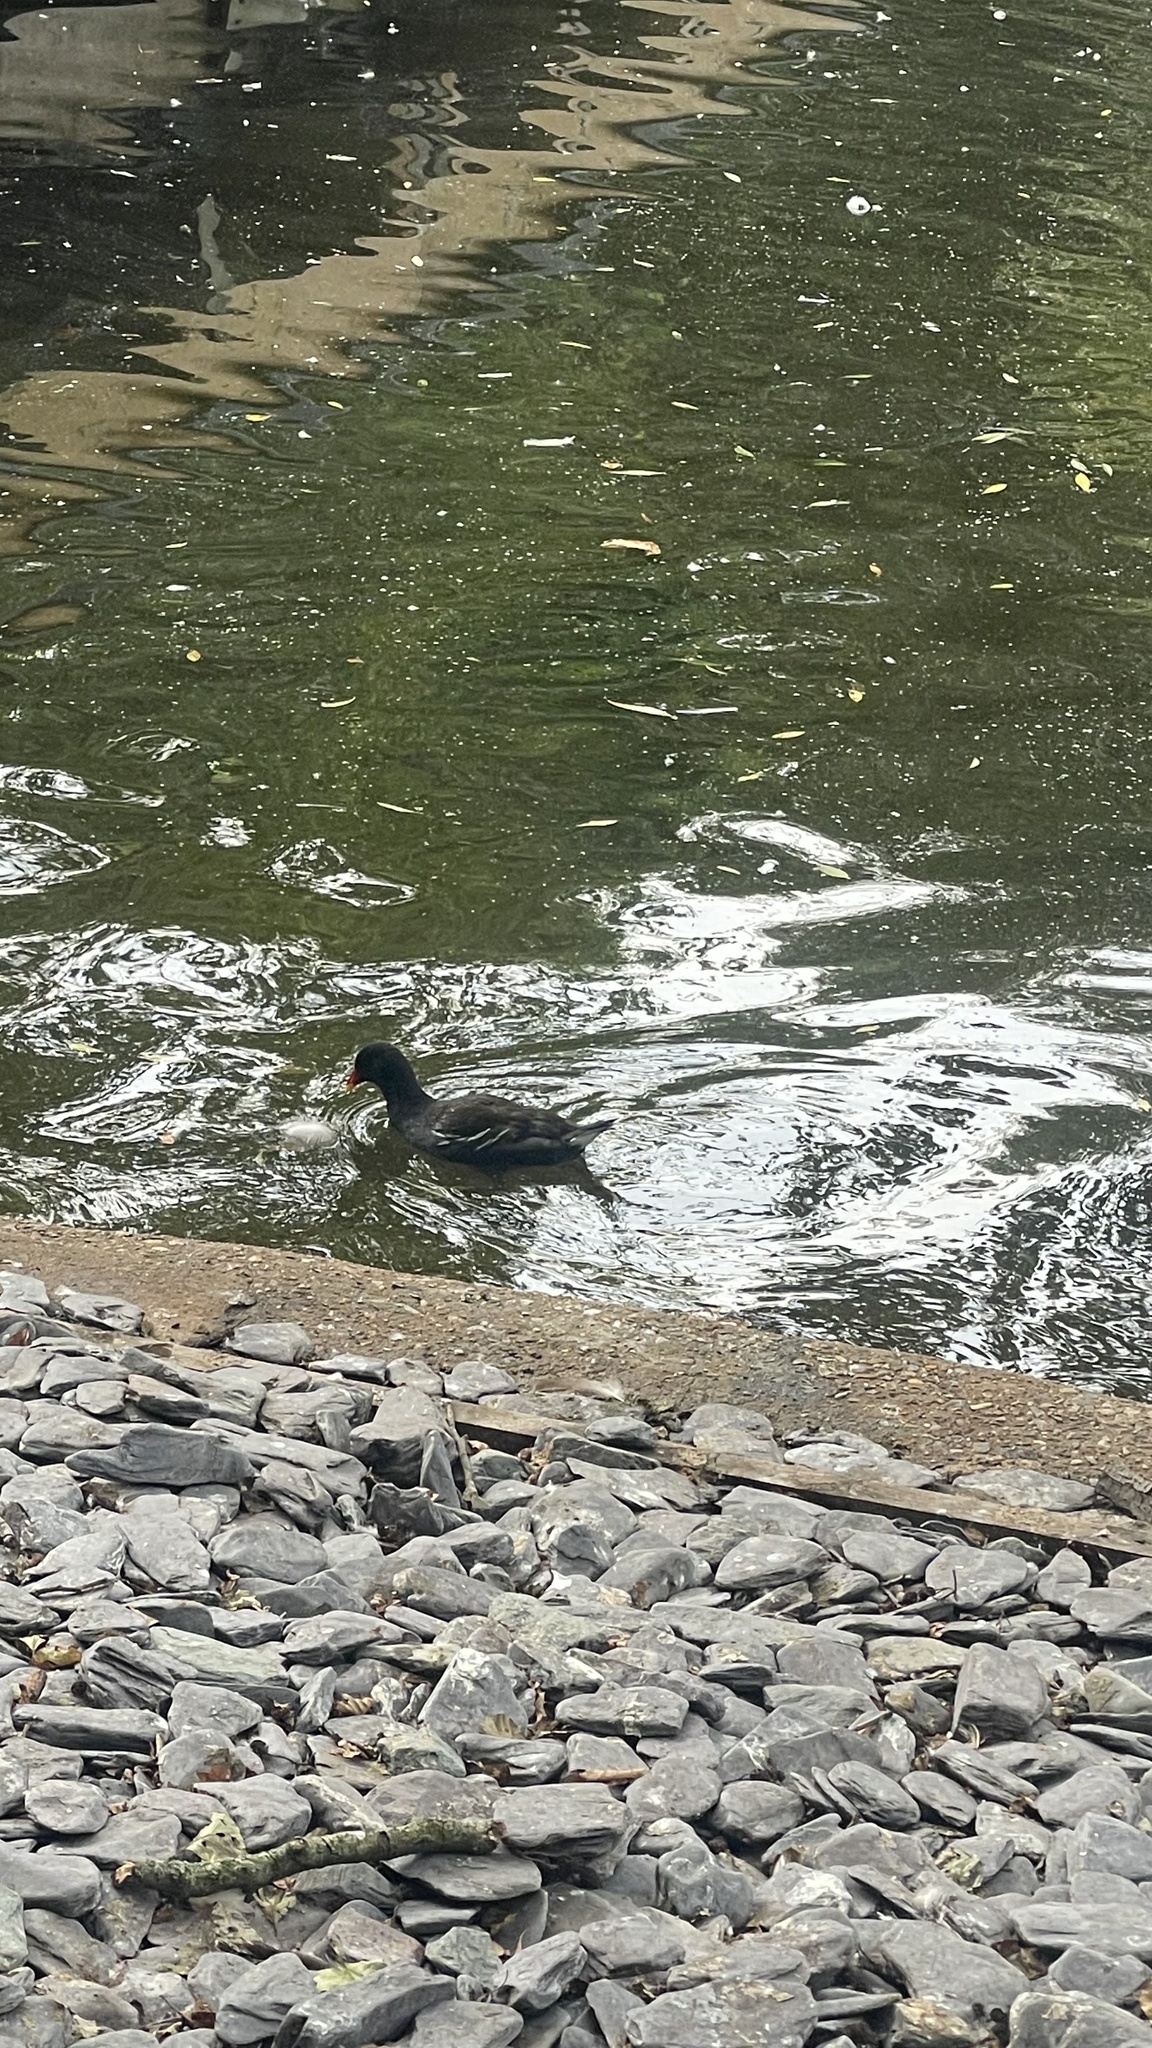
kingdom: Animalia
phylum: Chordata
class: Aves
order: Gruiformes
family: Rallidae
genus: Gallinula
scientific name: Gallinula chloropus
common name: Common moorhen
